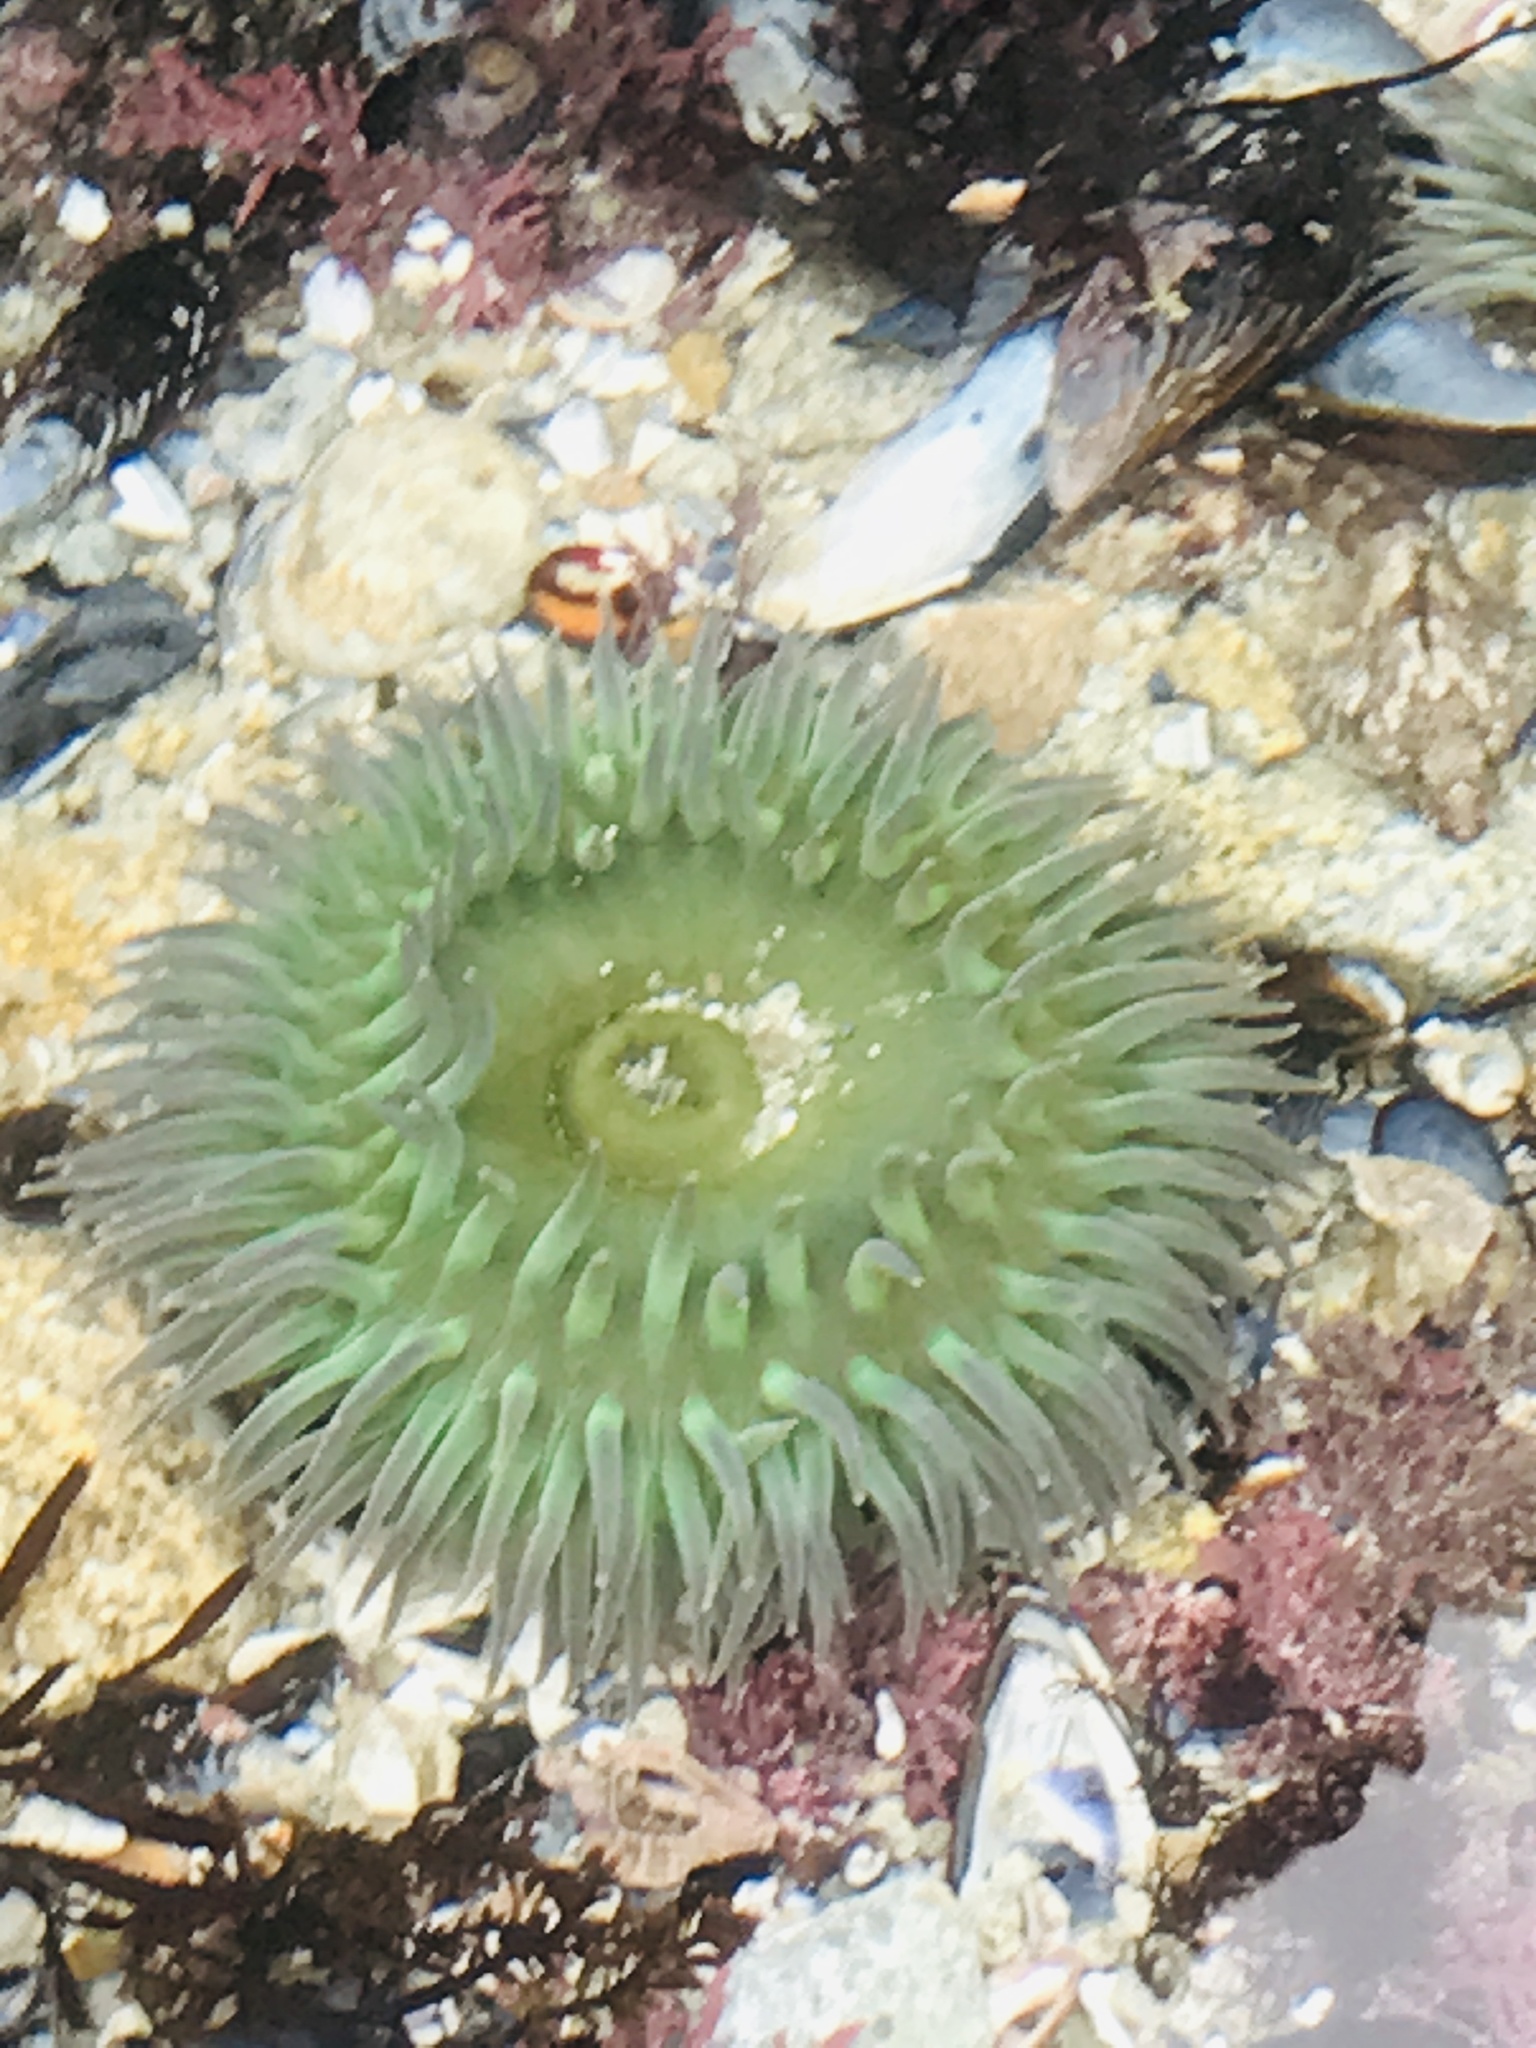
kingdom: Animalia
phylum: Cnidaria
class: Anthozoa
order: Actiniaria
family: Actiniidae
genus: Anthopleura
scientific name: Anthopleura xanthogrammica
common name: Giant green anemone
